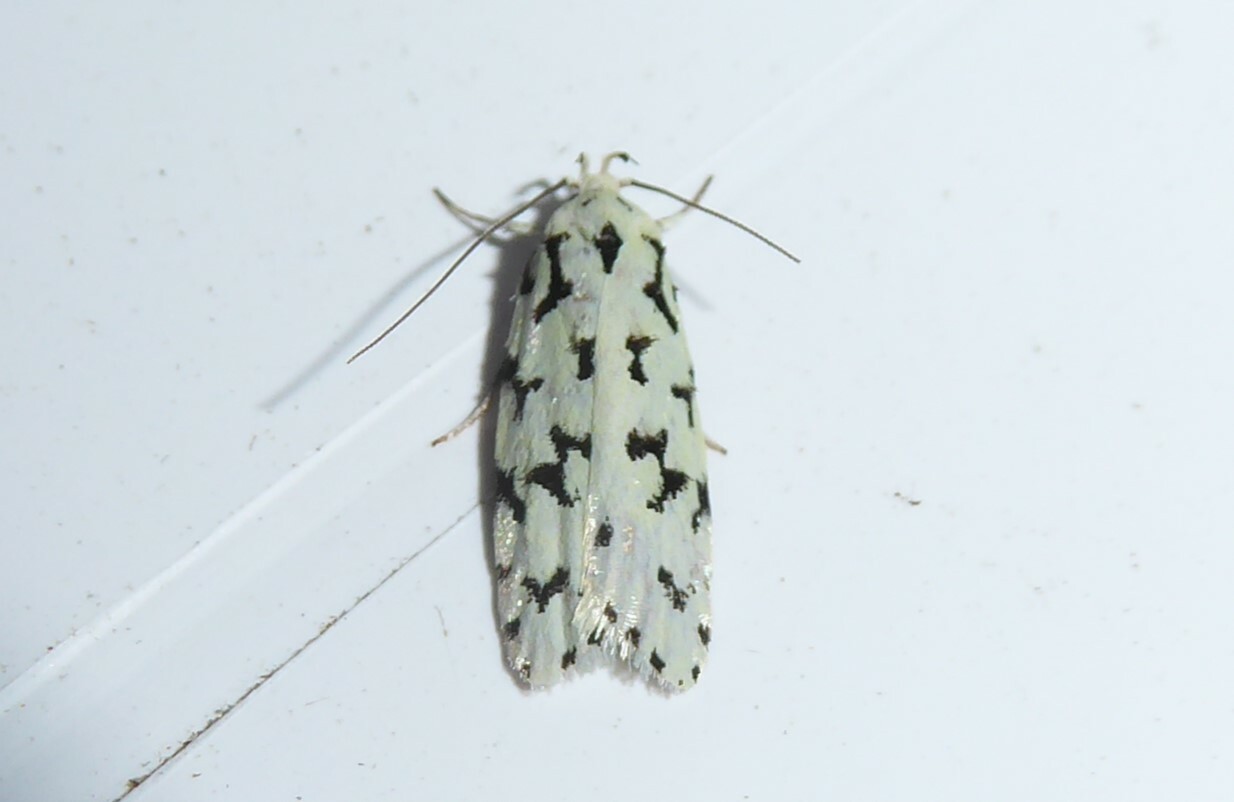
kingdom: Animalia
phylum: Arthropoda
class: Insecta
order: Lepidoptera
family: Oecophoridae
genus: Izatha
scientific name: Izatha huttoni
